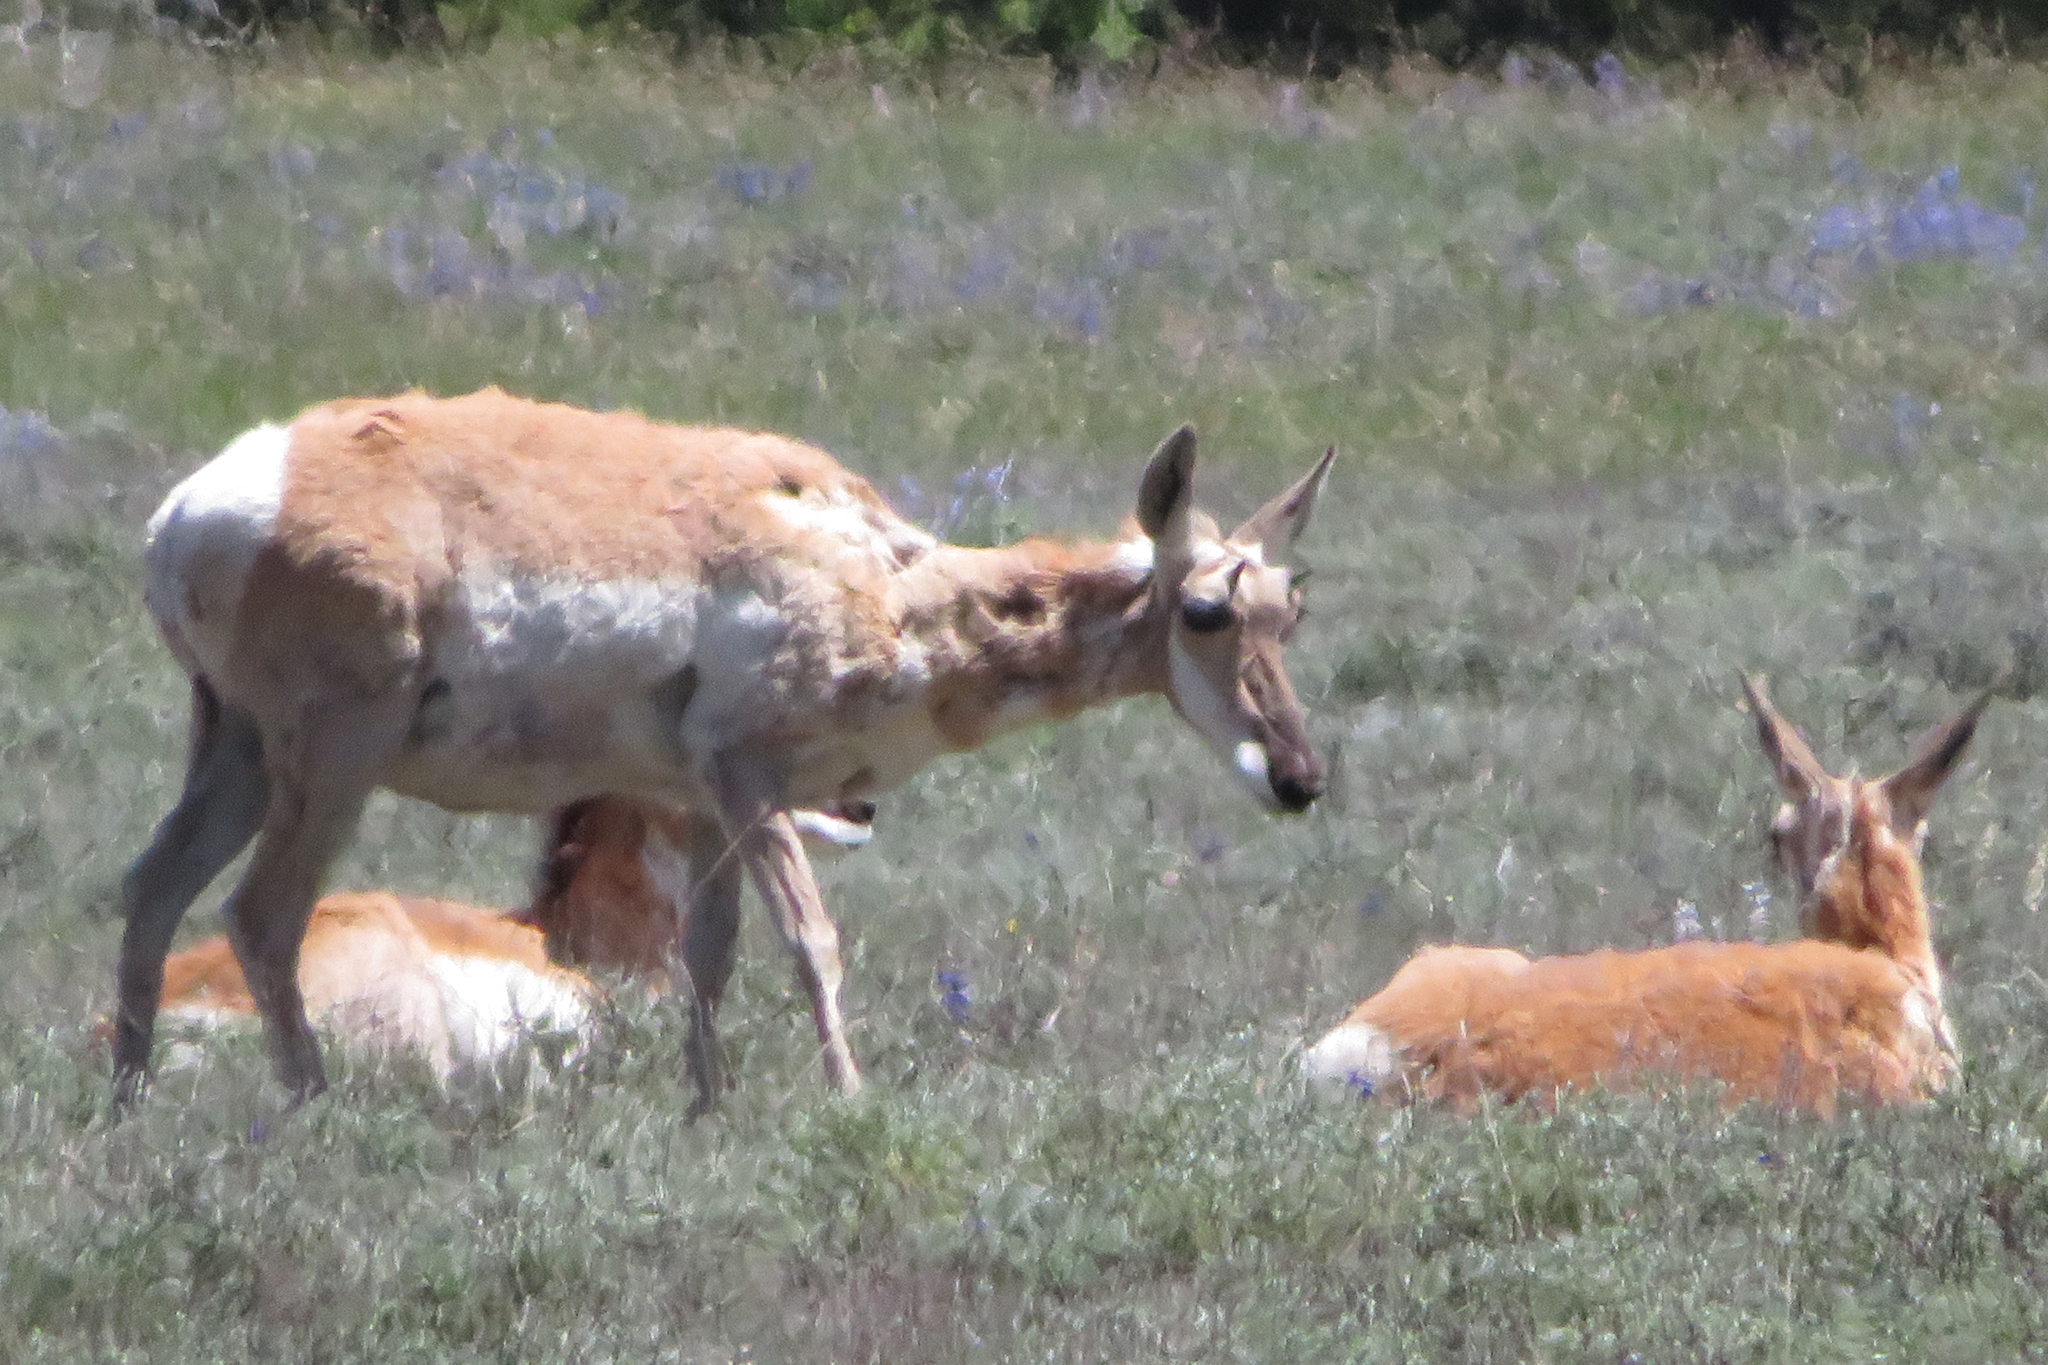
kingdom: Animalia
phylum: Chordata
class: Mammalia
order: Artiodactyla
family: Antilocapridae
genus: Antilocapra
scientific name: Antilocapra americana
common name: Pronghorn
